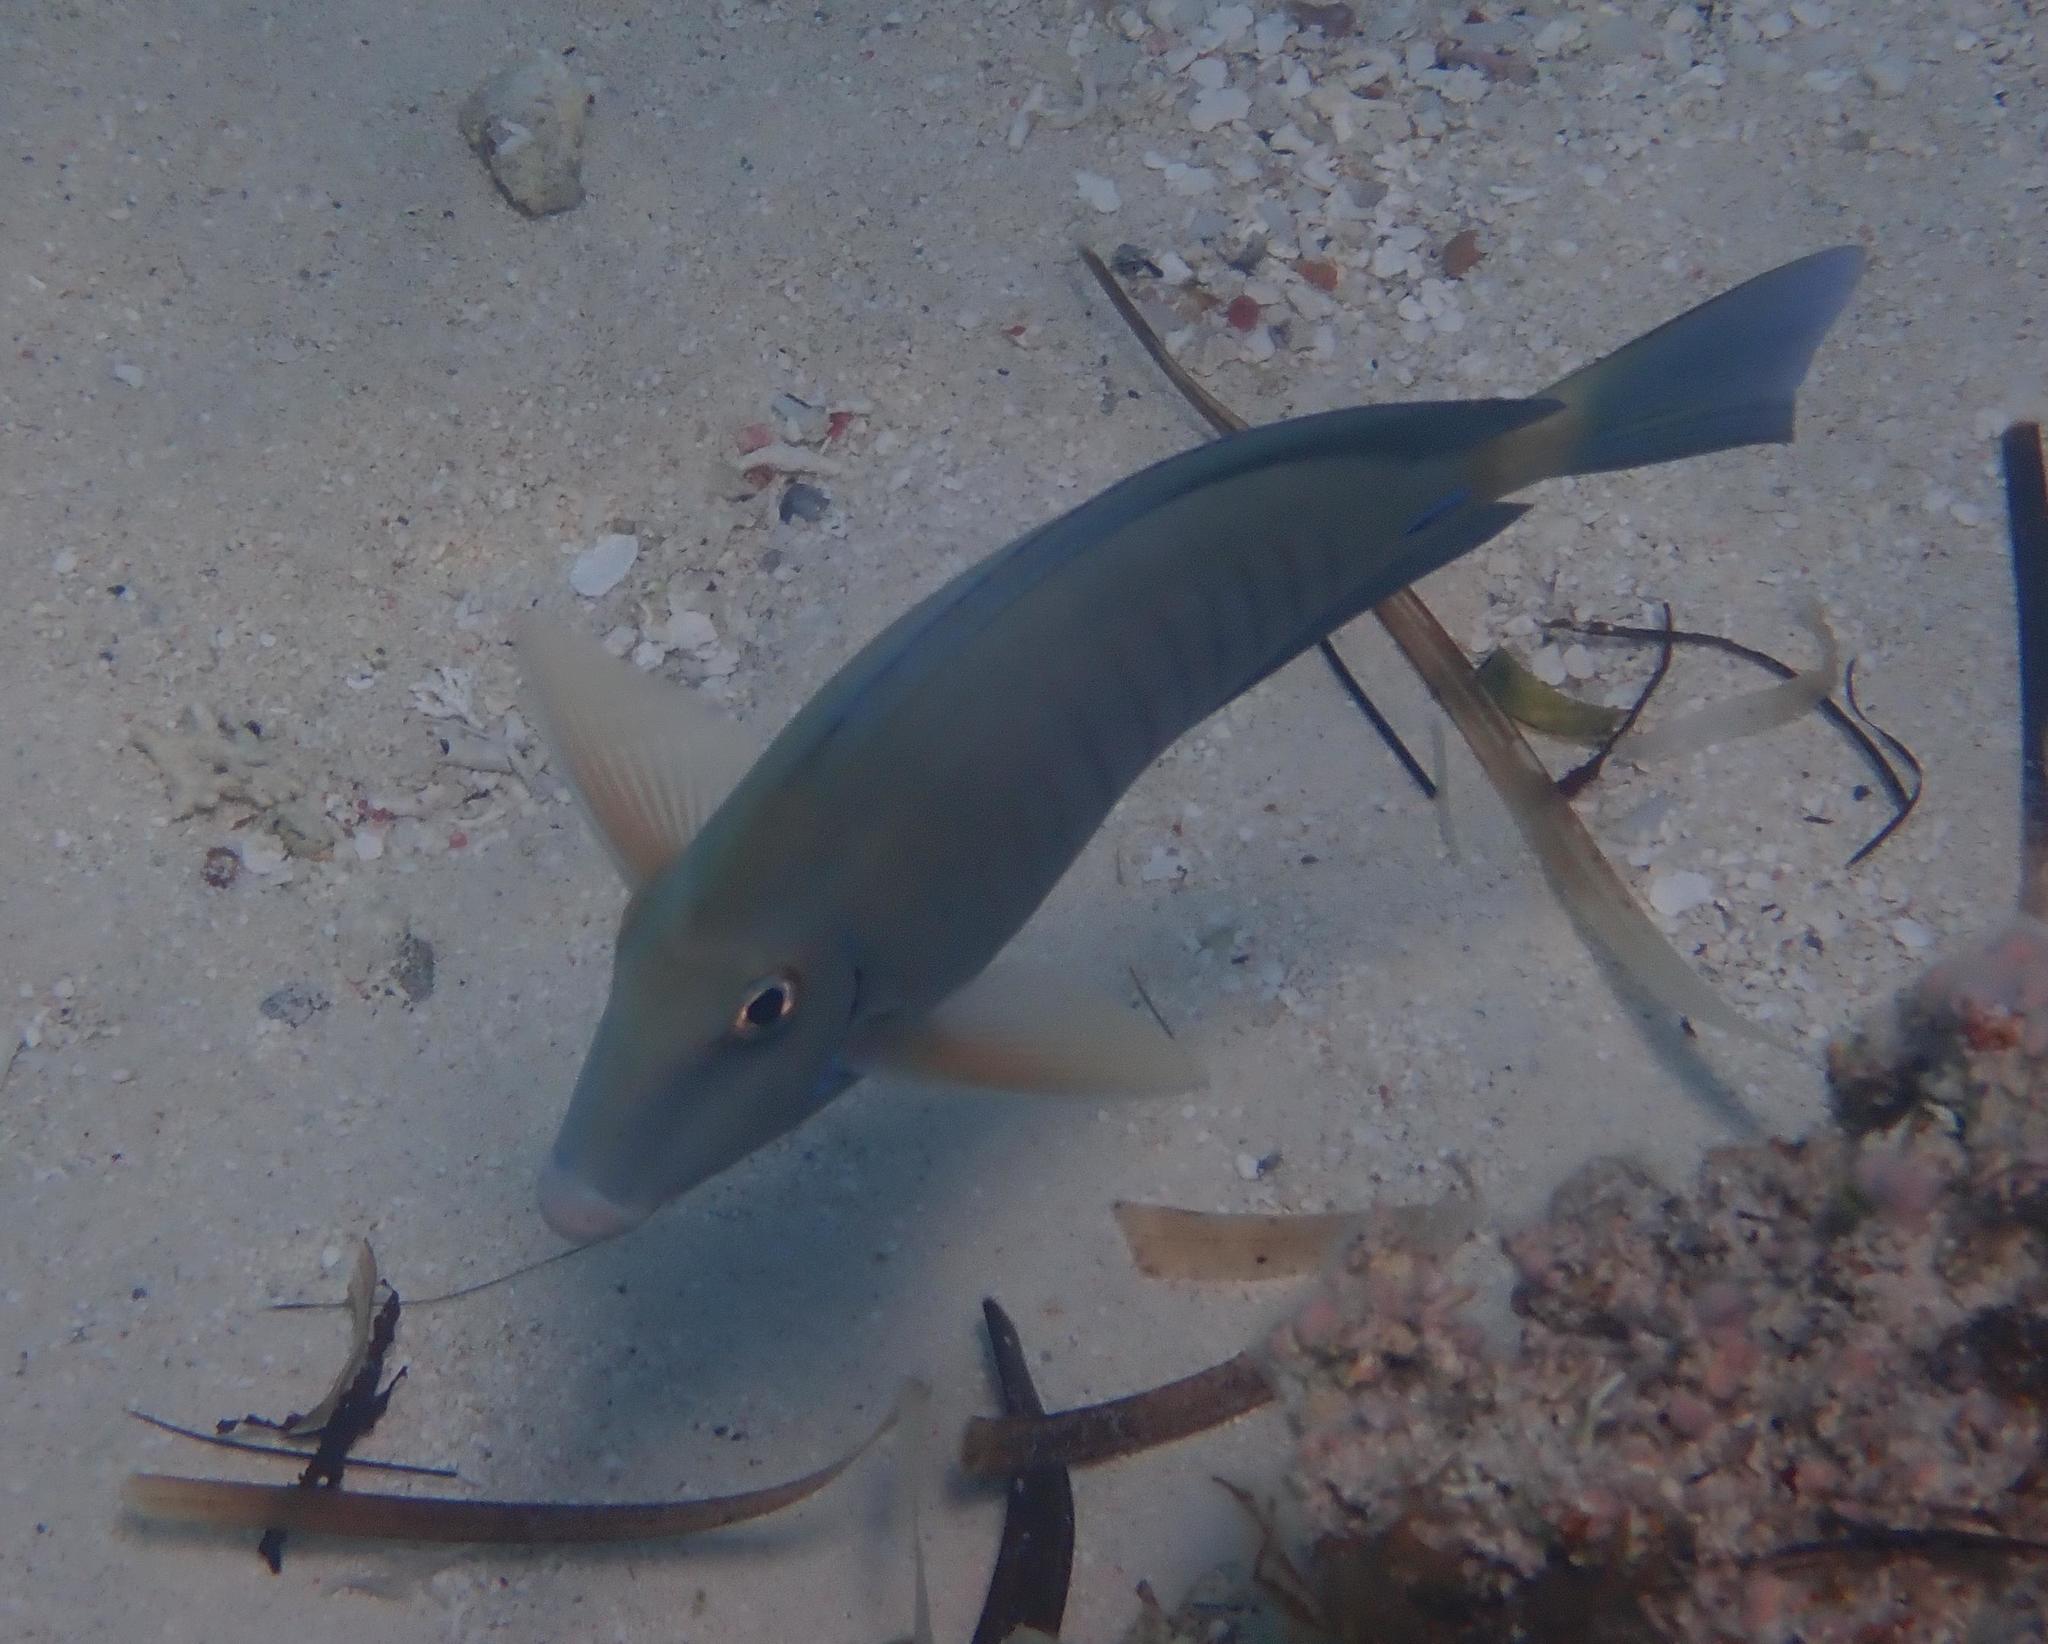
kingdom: Animalia
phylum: Chordata
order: Perciformes
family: Acanthuridae
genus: Acanthurus
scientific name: Acanthurus chirurgus
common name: Doctorfish
